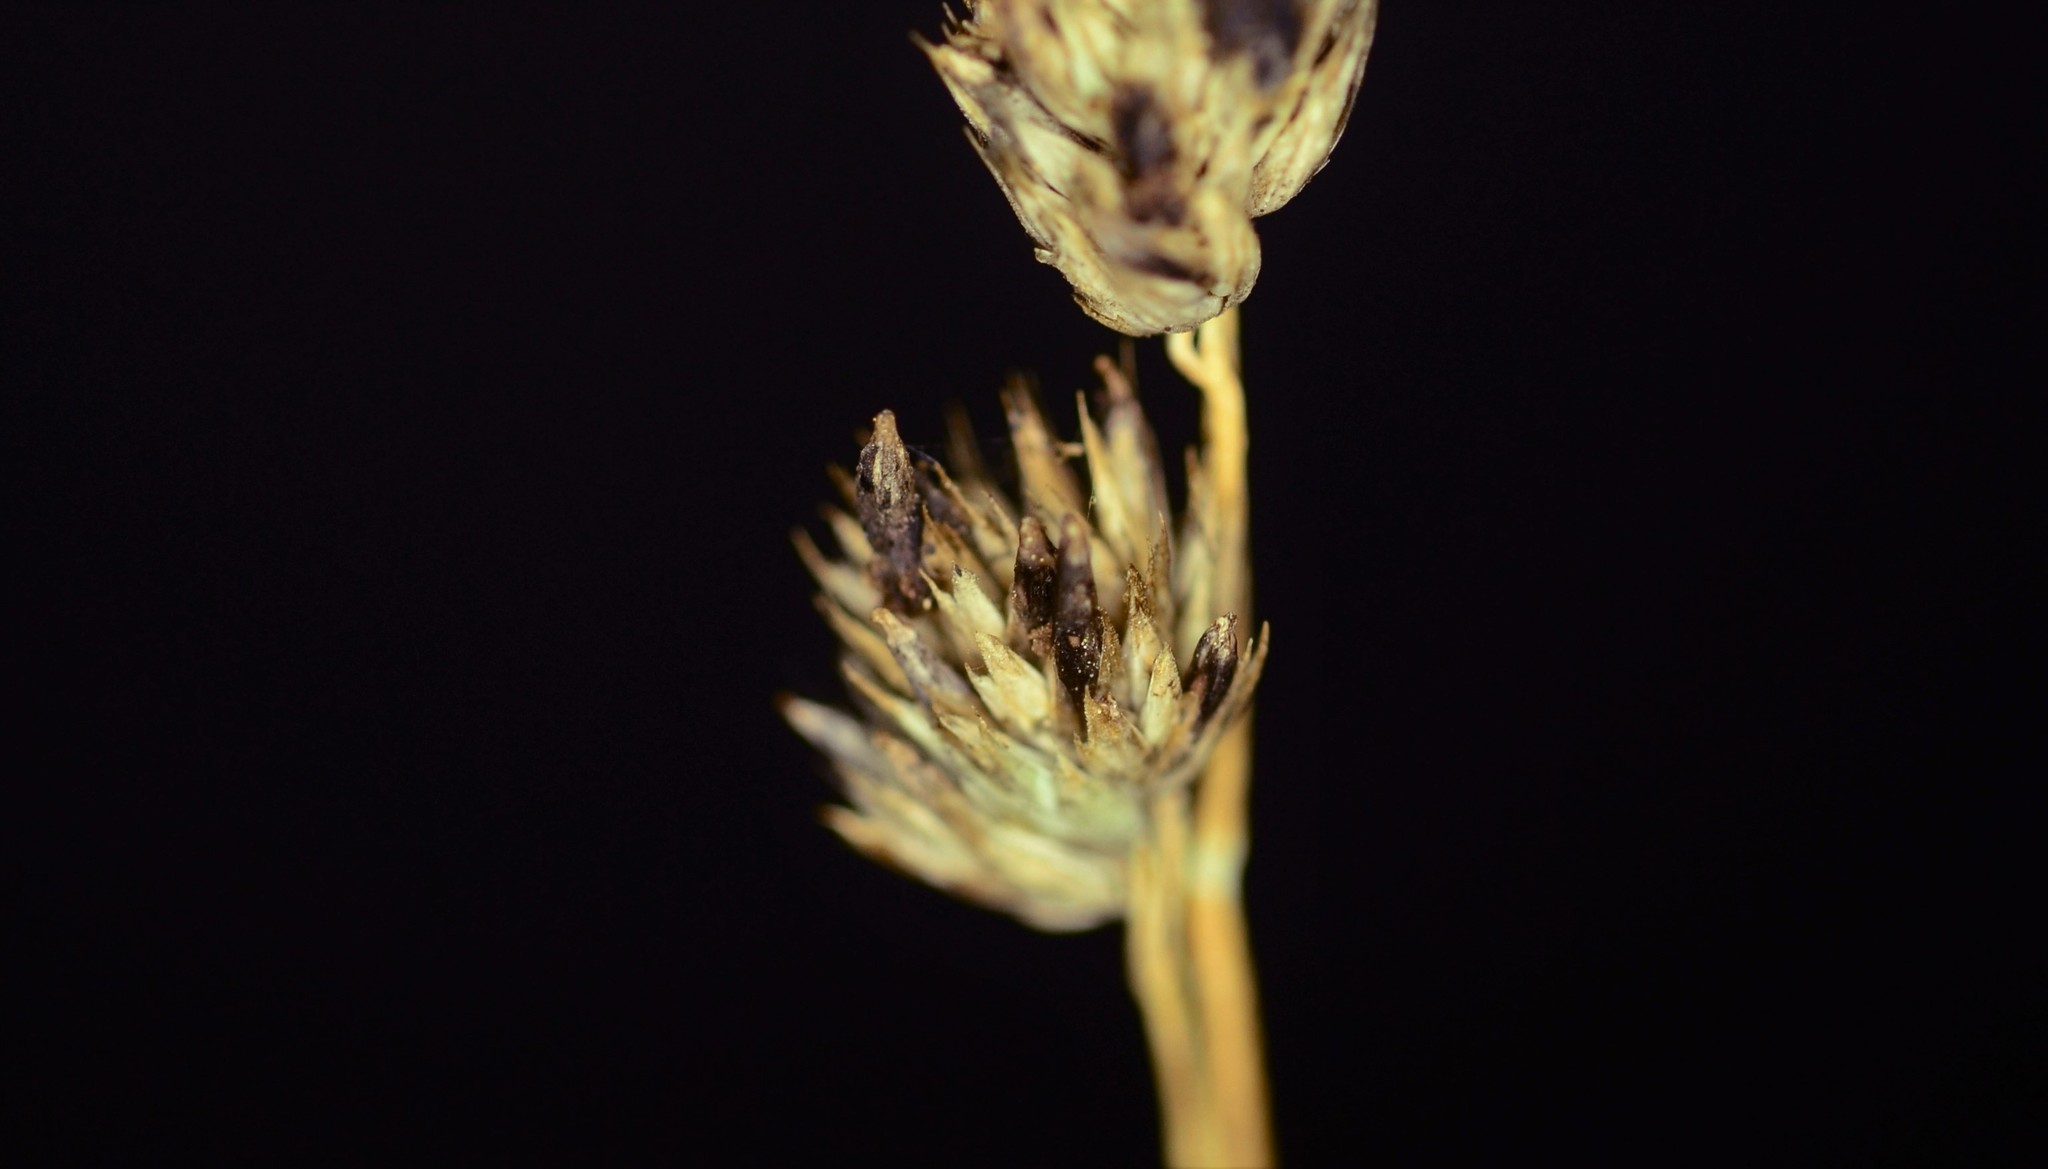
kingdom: Fungi
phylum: Ascomycota
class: Sordariomycetes
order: Hypocreales
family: Clavicipitaceae
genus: Claviceps
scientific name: Claviceps purpurea
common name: Rye ergot
